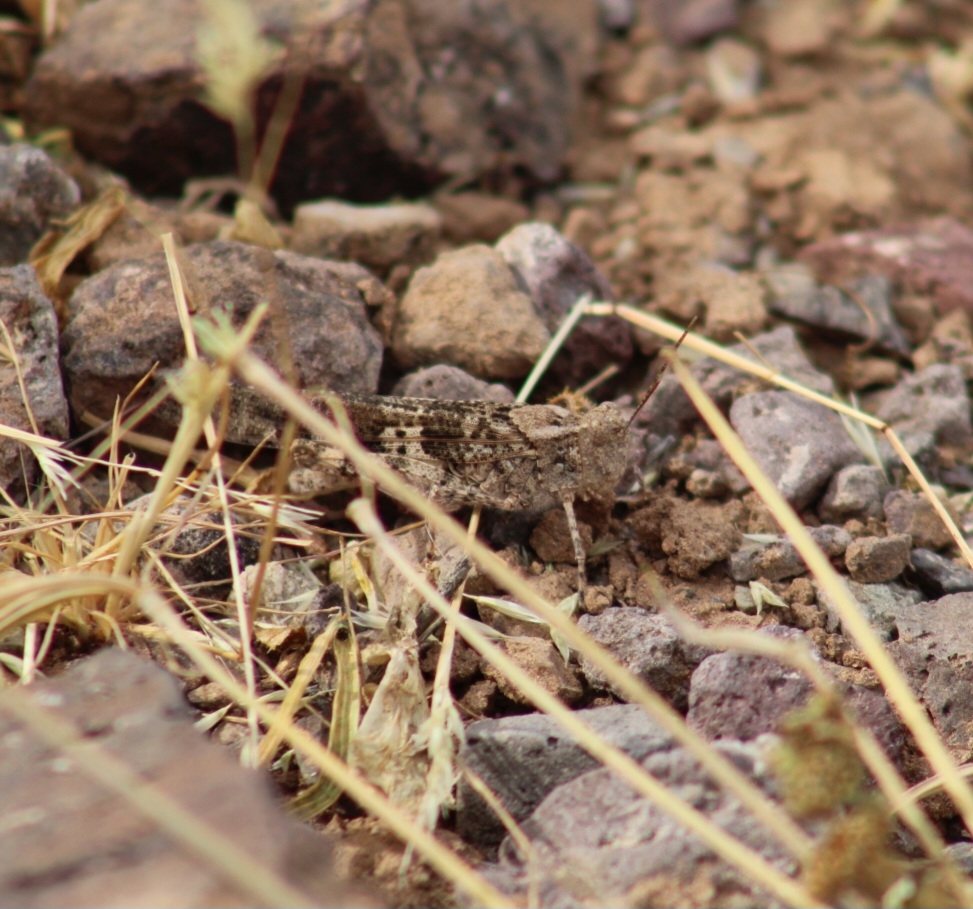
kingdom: Animalia
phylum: Arthropoda
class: Insecta
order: Orthoptera
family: Acrididae
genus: Trimerotropis
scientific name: Trimerotropis pallidipennis
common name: Pallid-winged grasshopper
